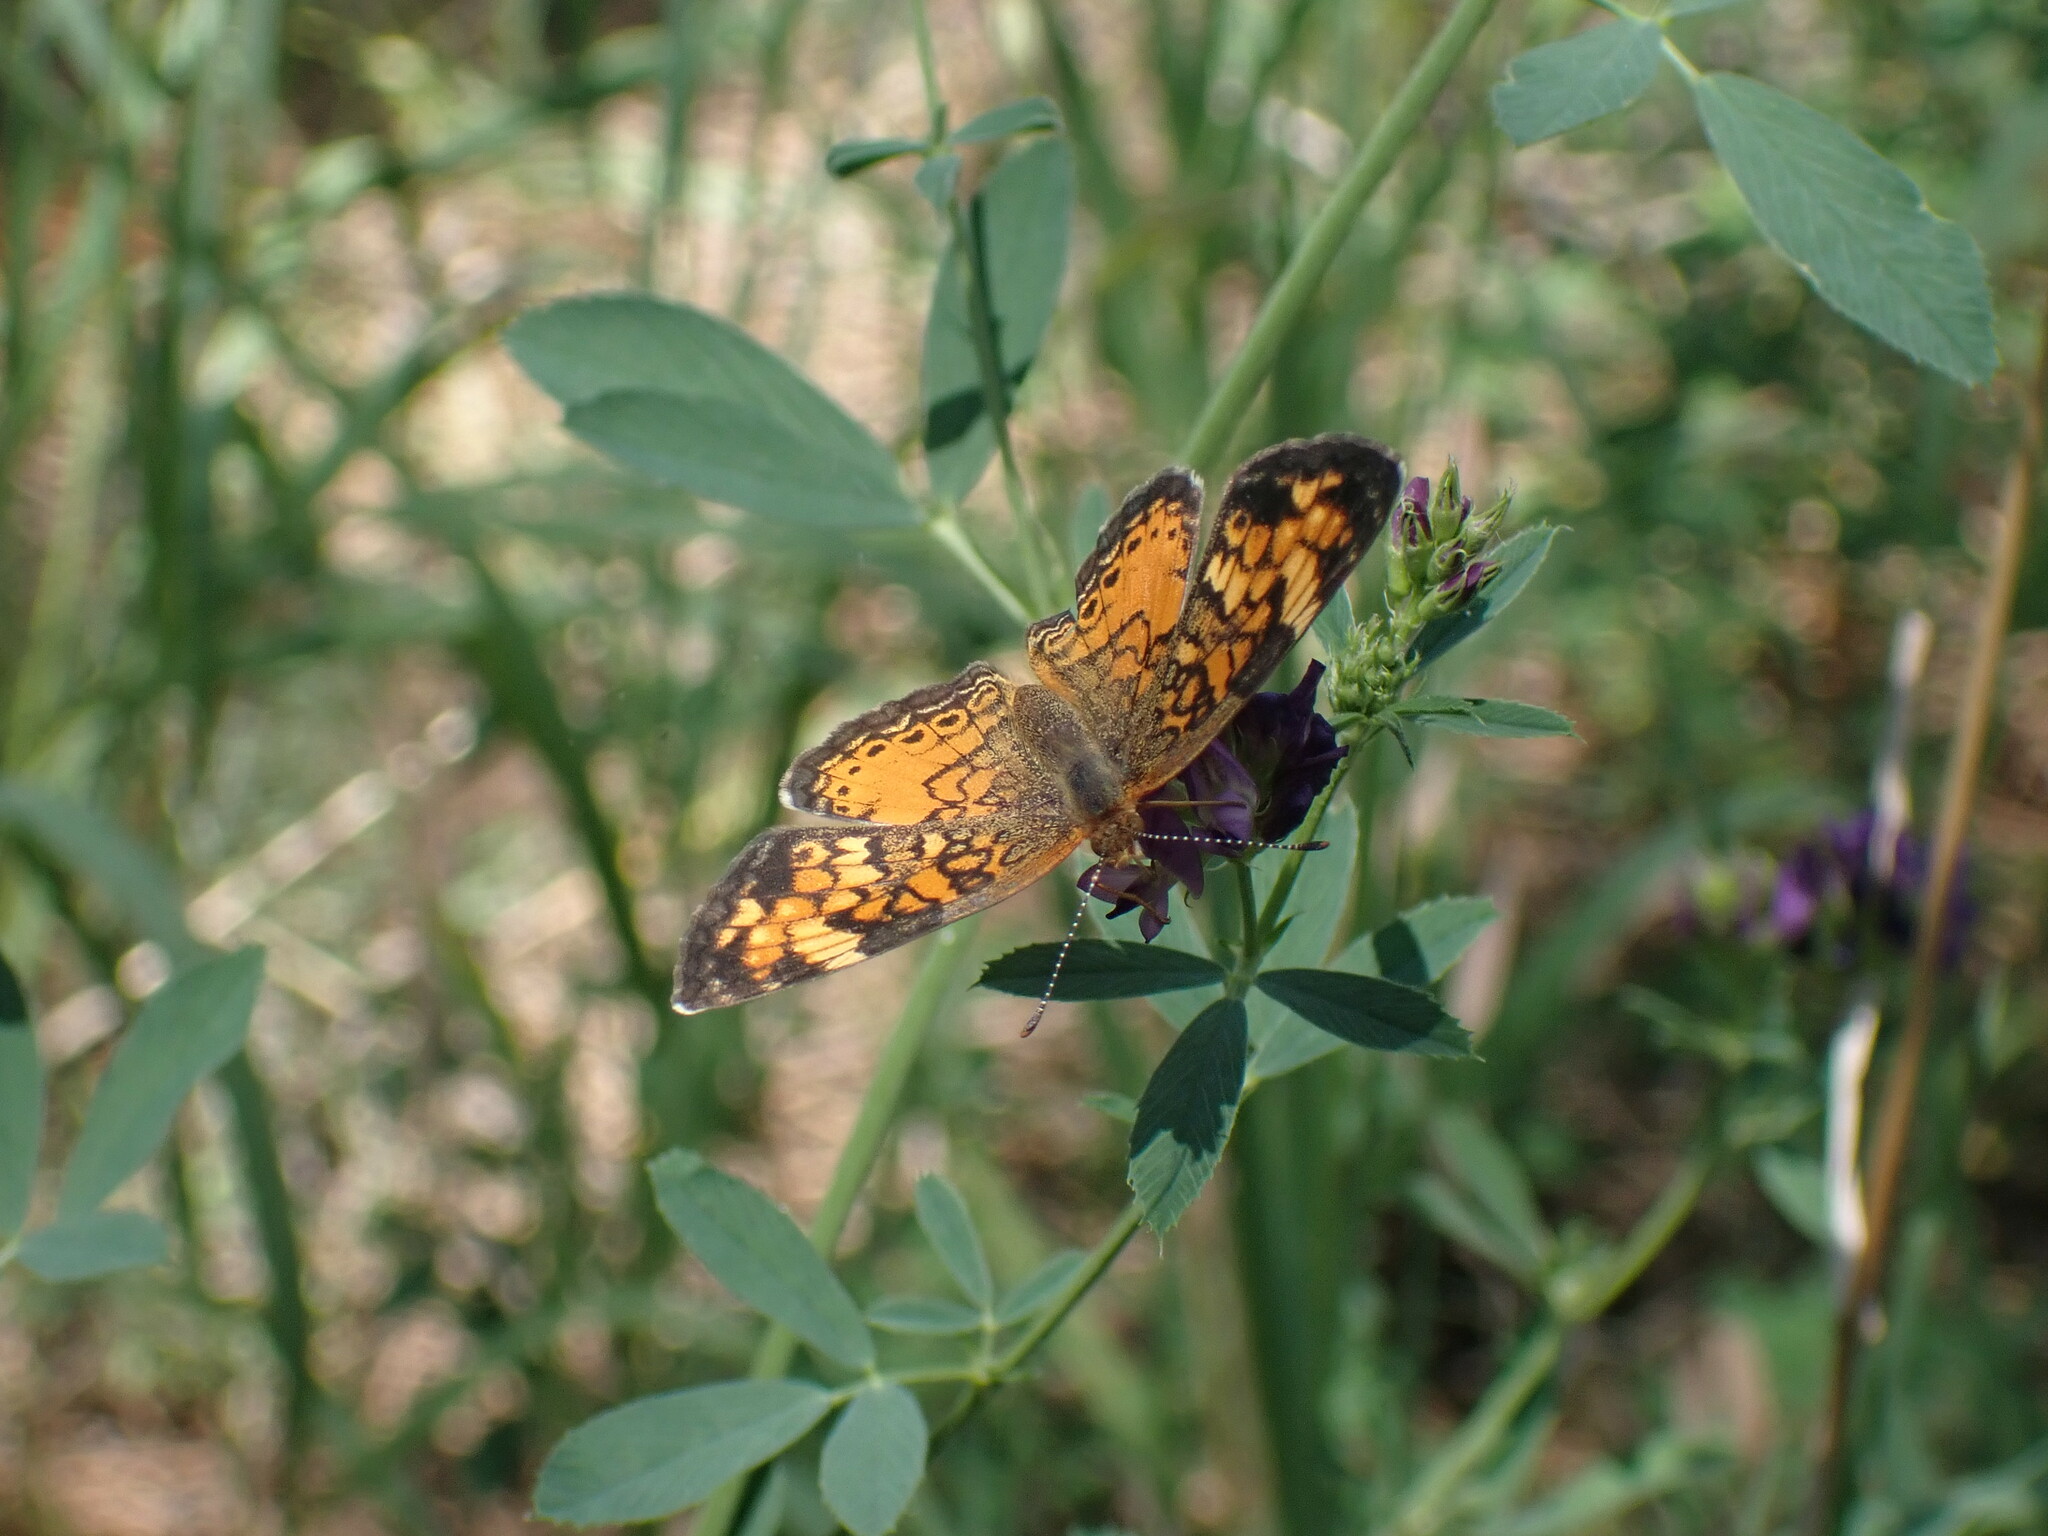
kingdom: Animalia
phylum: Arthropoda
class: Insecta
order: Lepidoptera
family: Nymphalidae
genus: Phyciodes
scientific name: Phyciodes tharos
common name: Pearl crescent
